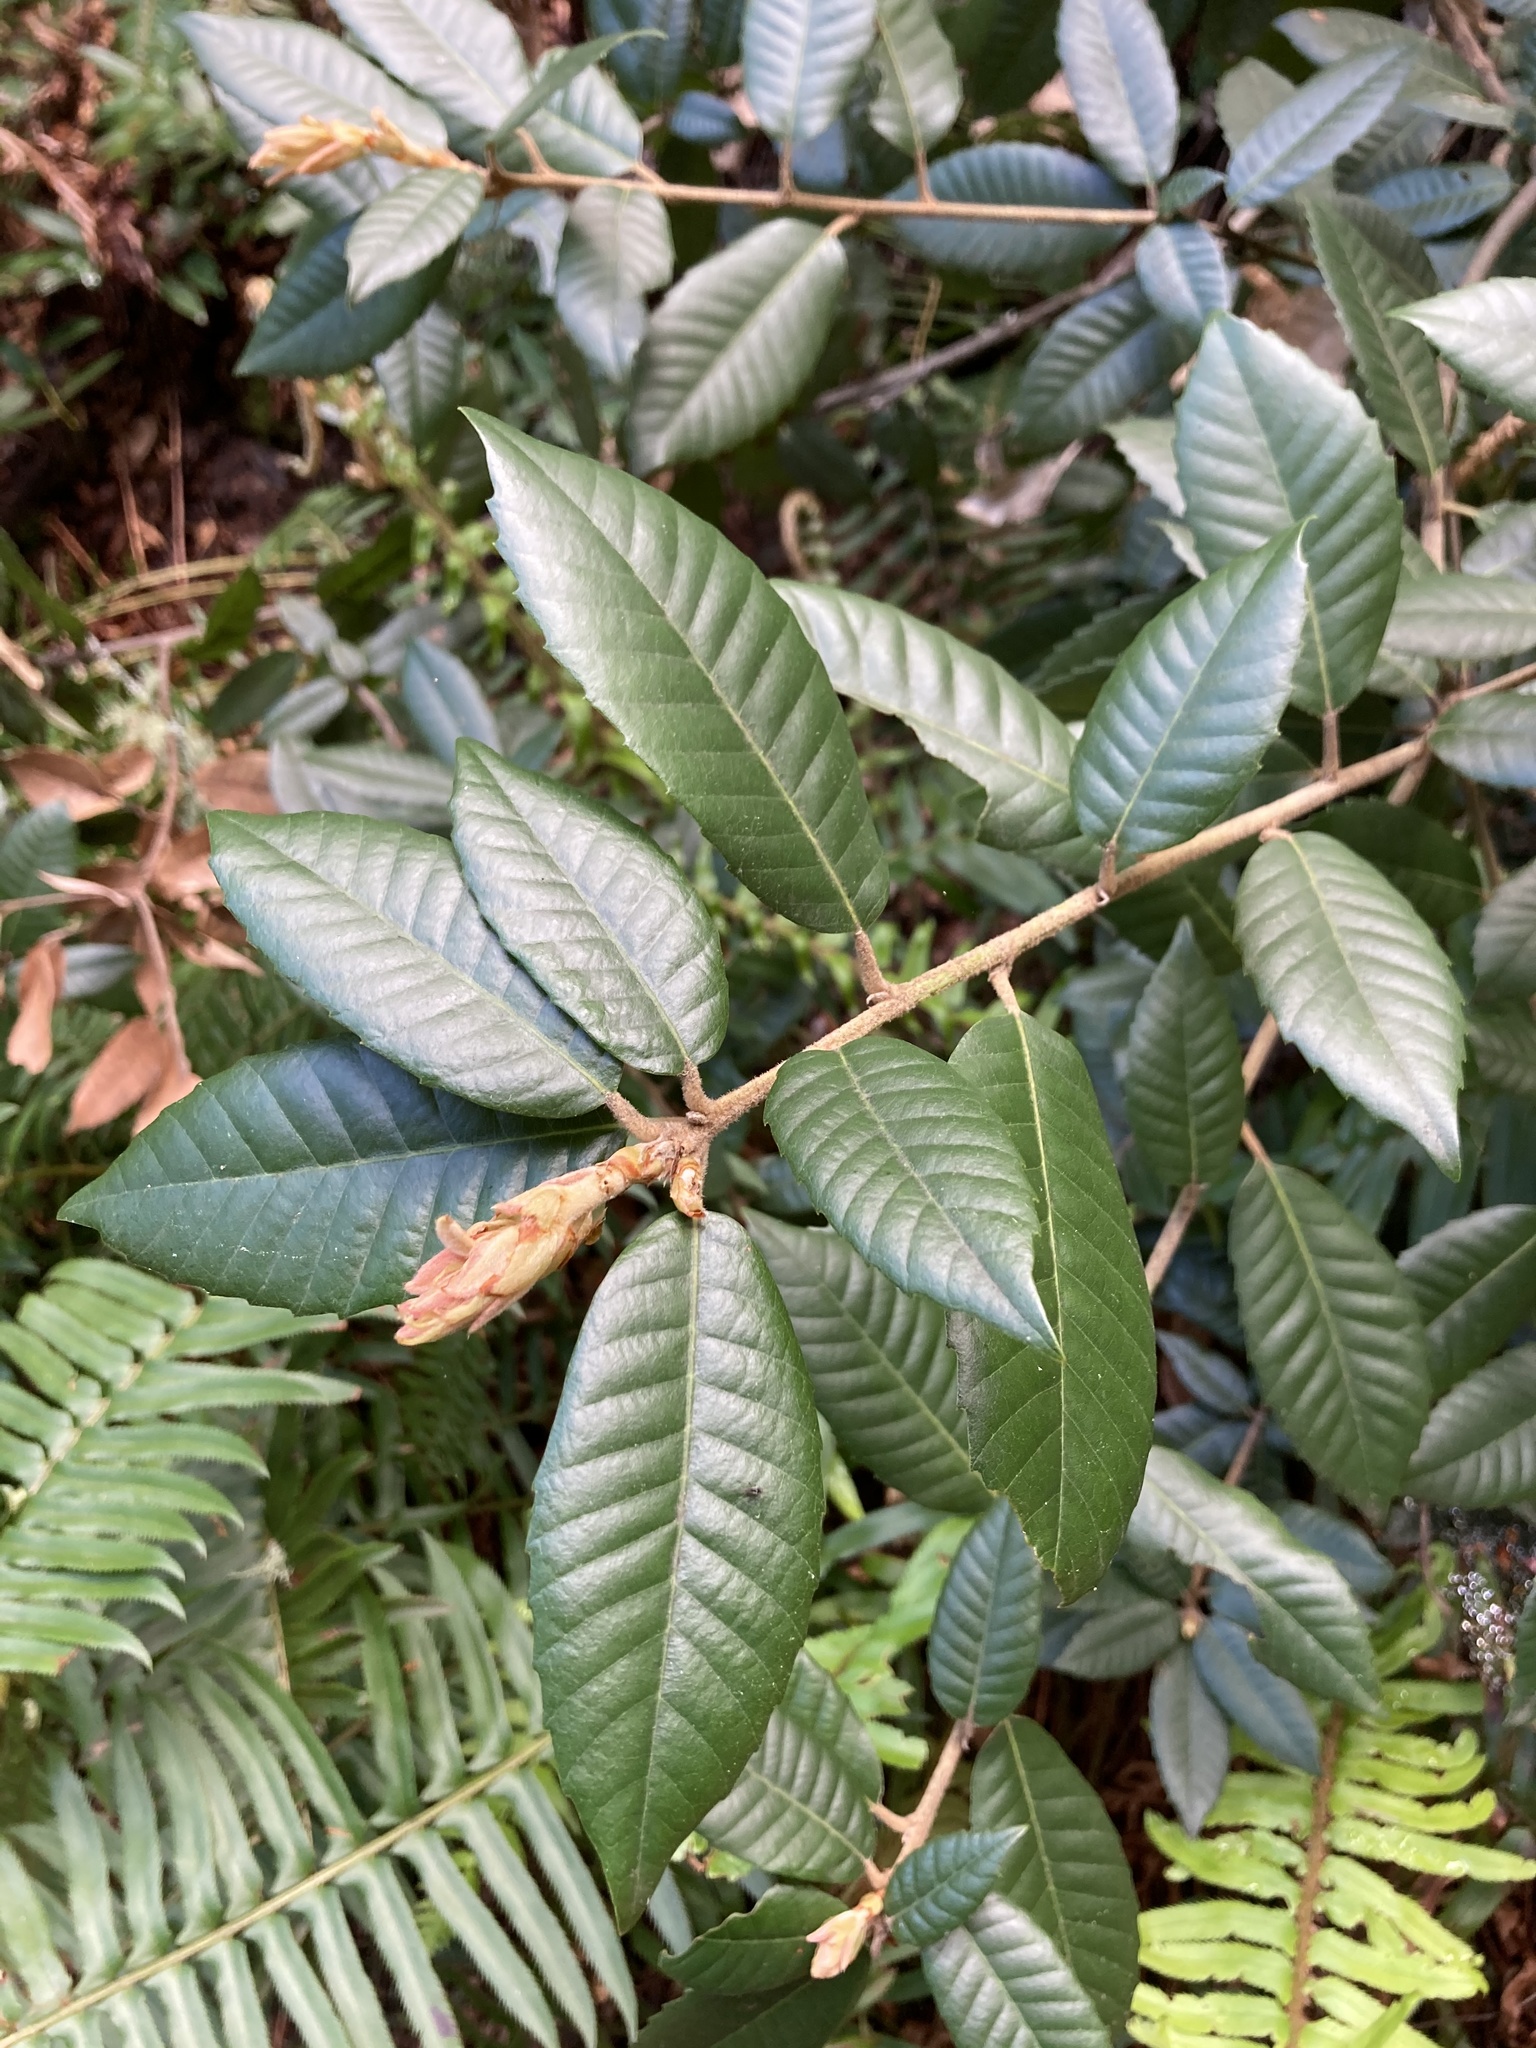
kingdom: Plantae
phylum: Tracheophyta
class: Magnoliopsida
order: Fagales
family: Fagaceae
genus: Notholithocarpus
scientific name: Notholithocarpus densiflorus
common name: Tan bark oak
